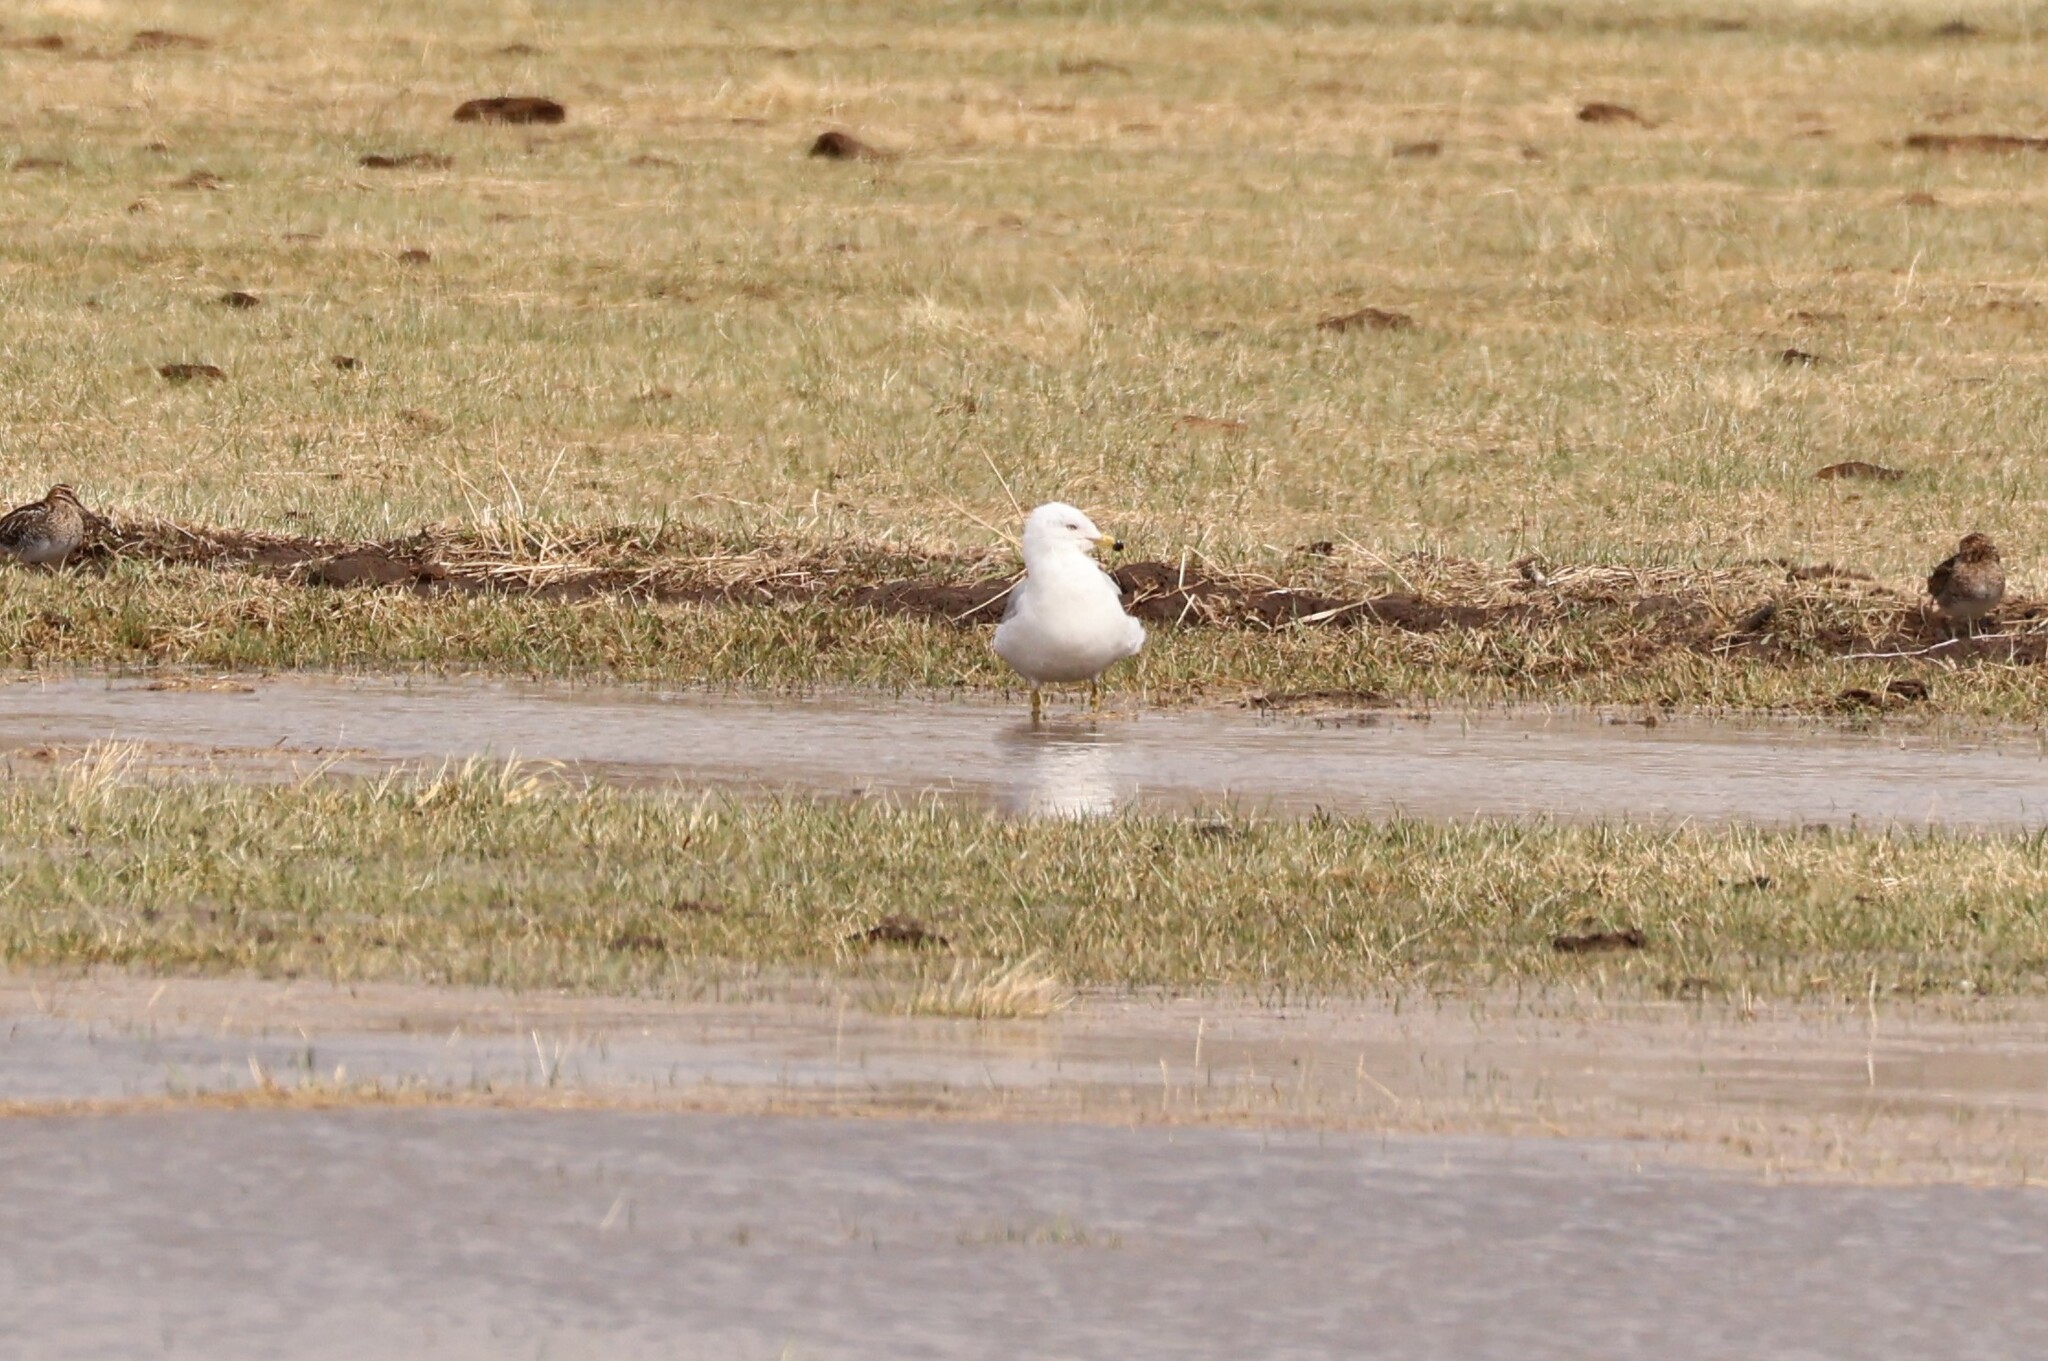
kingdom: Animalia
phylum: Chordata
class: Aves
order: Charadriiformes
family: Laridae
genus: Larus
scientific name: Larus delawarensis
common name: Ring-billed gull
